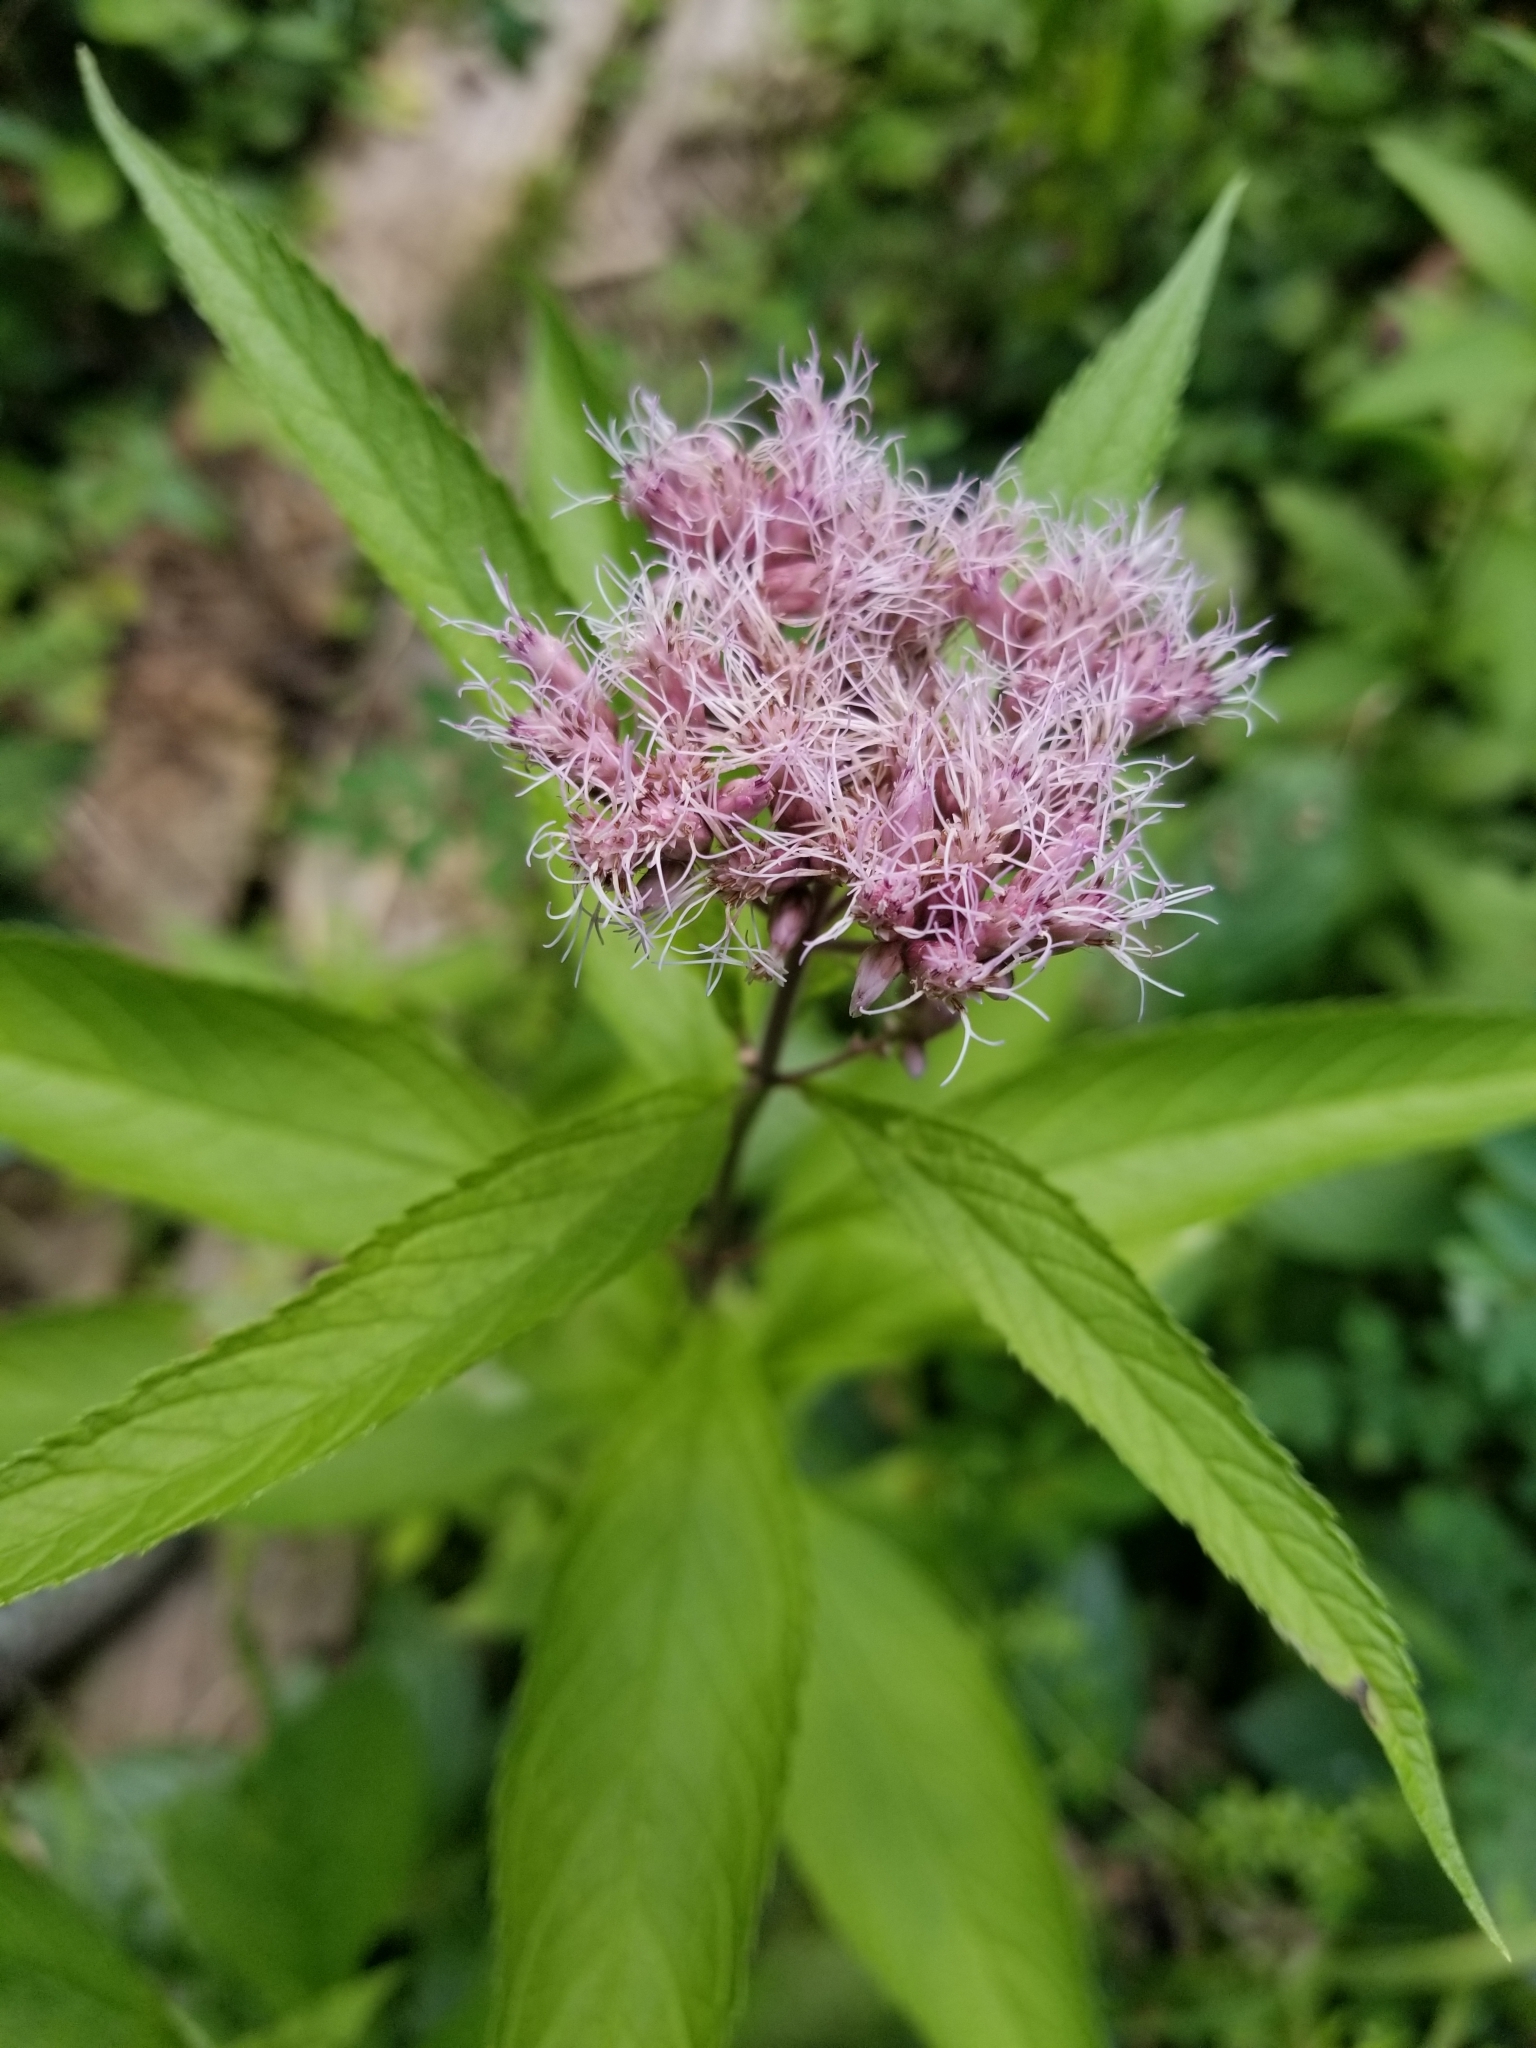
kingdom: Plantae
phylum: Tracheophyta
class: Magnoliopsida
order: Asterales
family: Asteraceae
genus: Eutrochium
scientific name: Eutrochium maculatum
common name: Spotted joe pye weed
